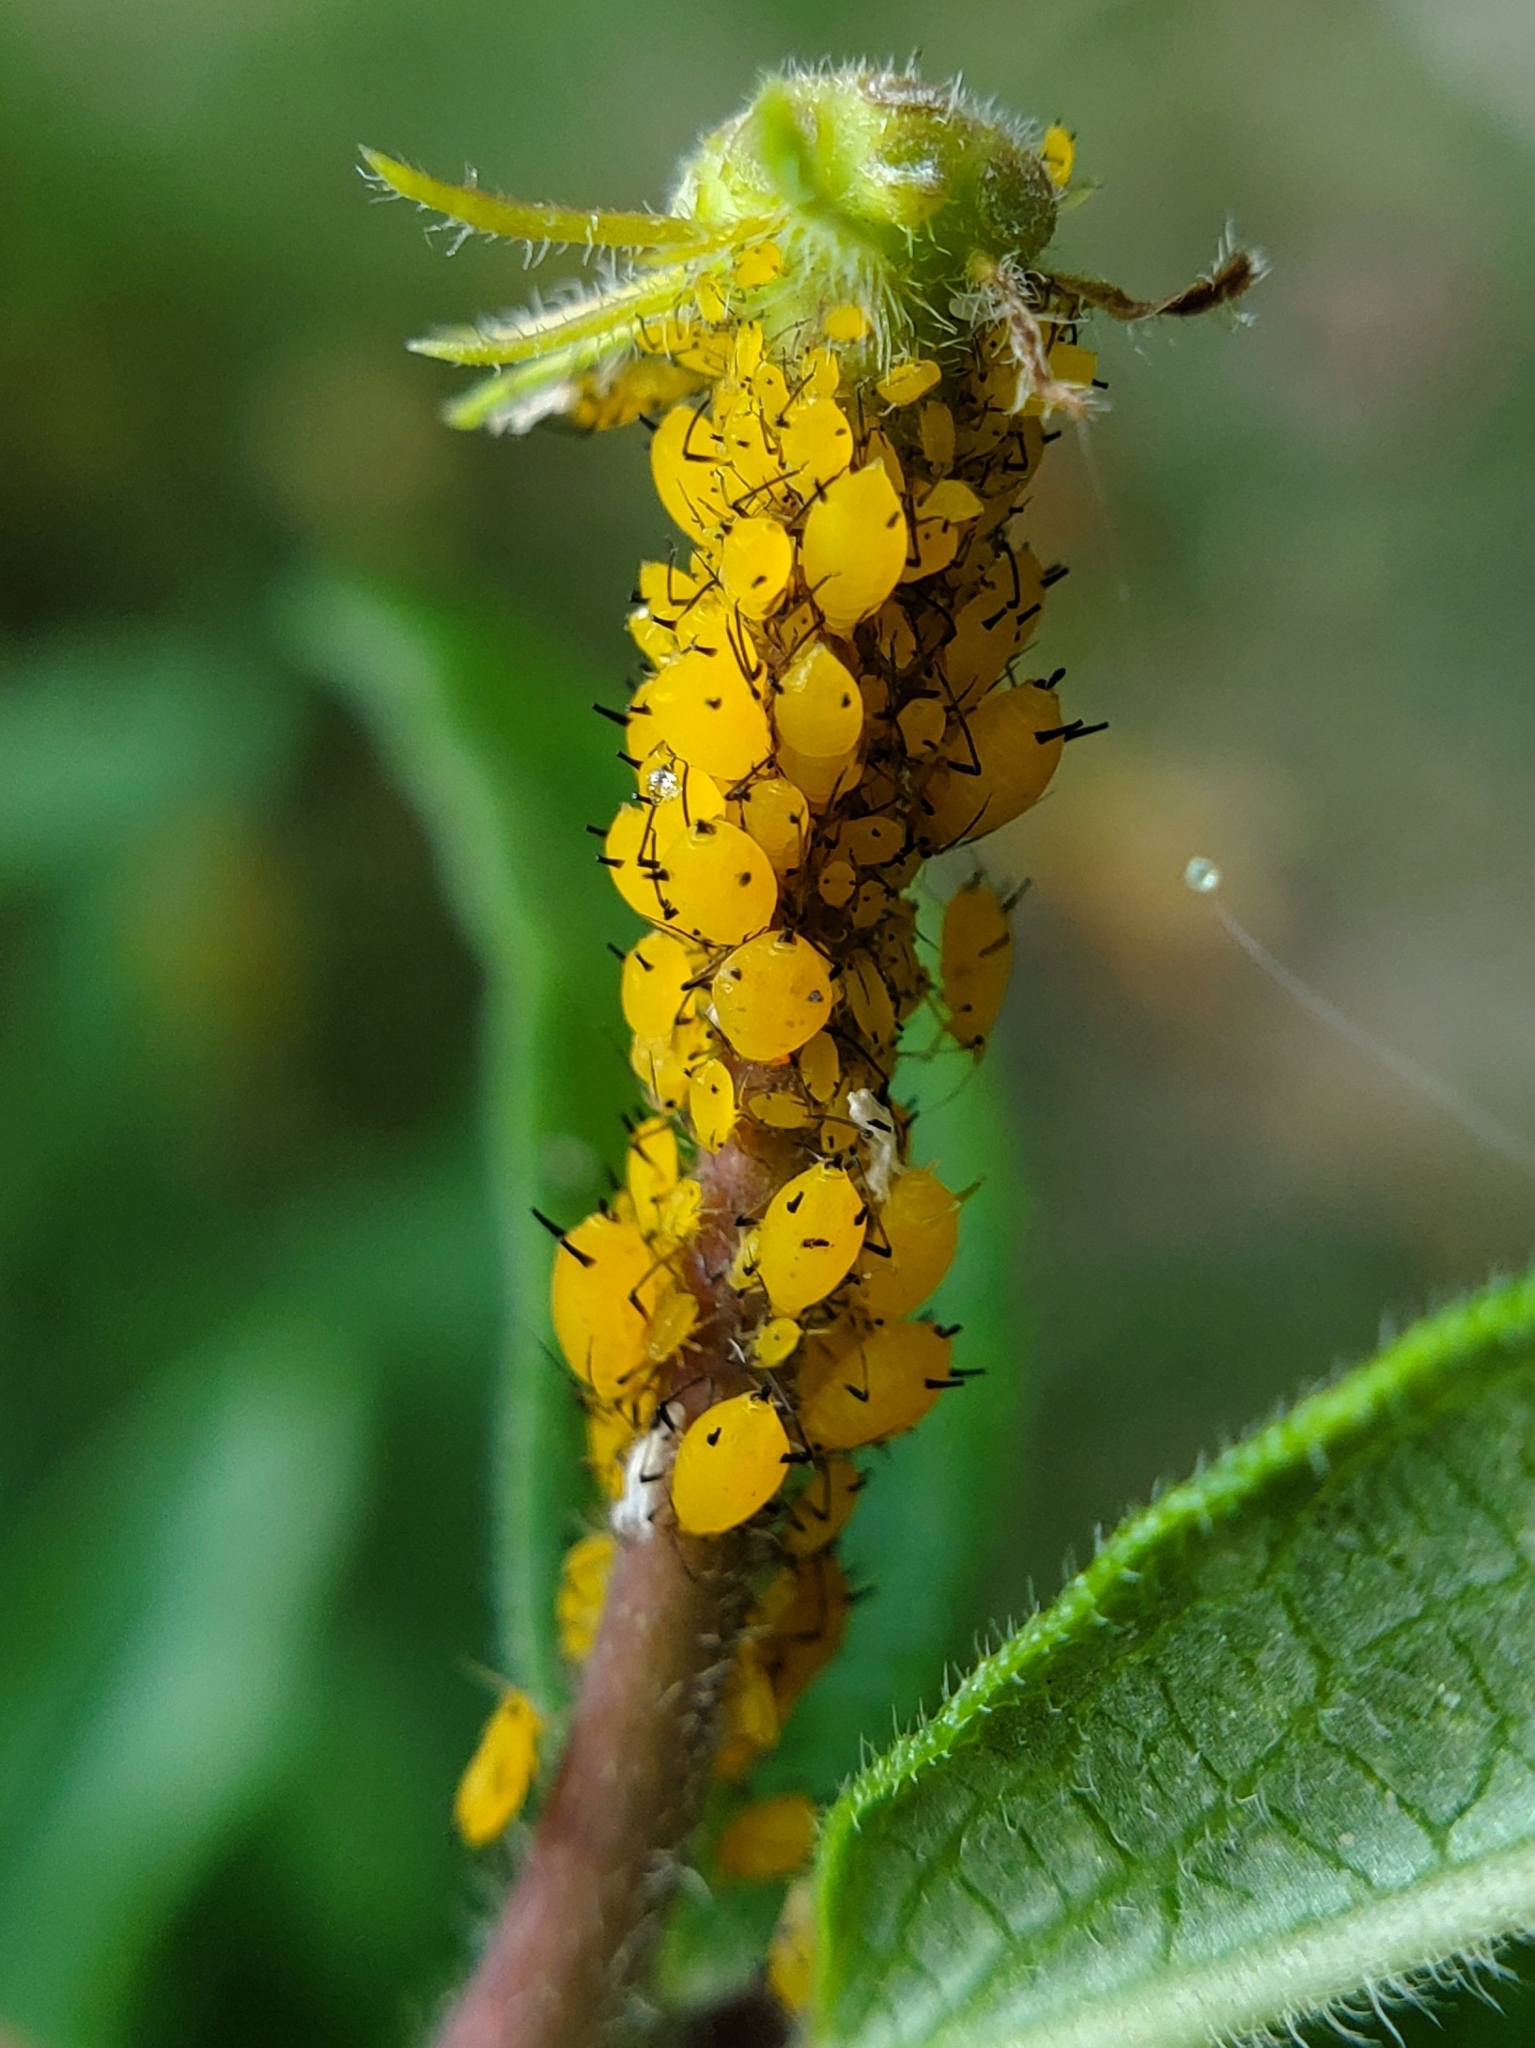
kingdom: Animalia
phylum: Arthropoda
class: Insecta
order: Hemiptera
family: Aphididae
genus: Aphis
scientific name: Aphis nerii
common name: Oleander aphid
